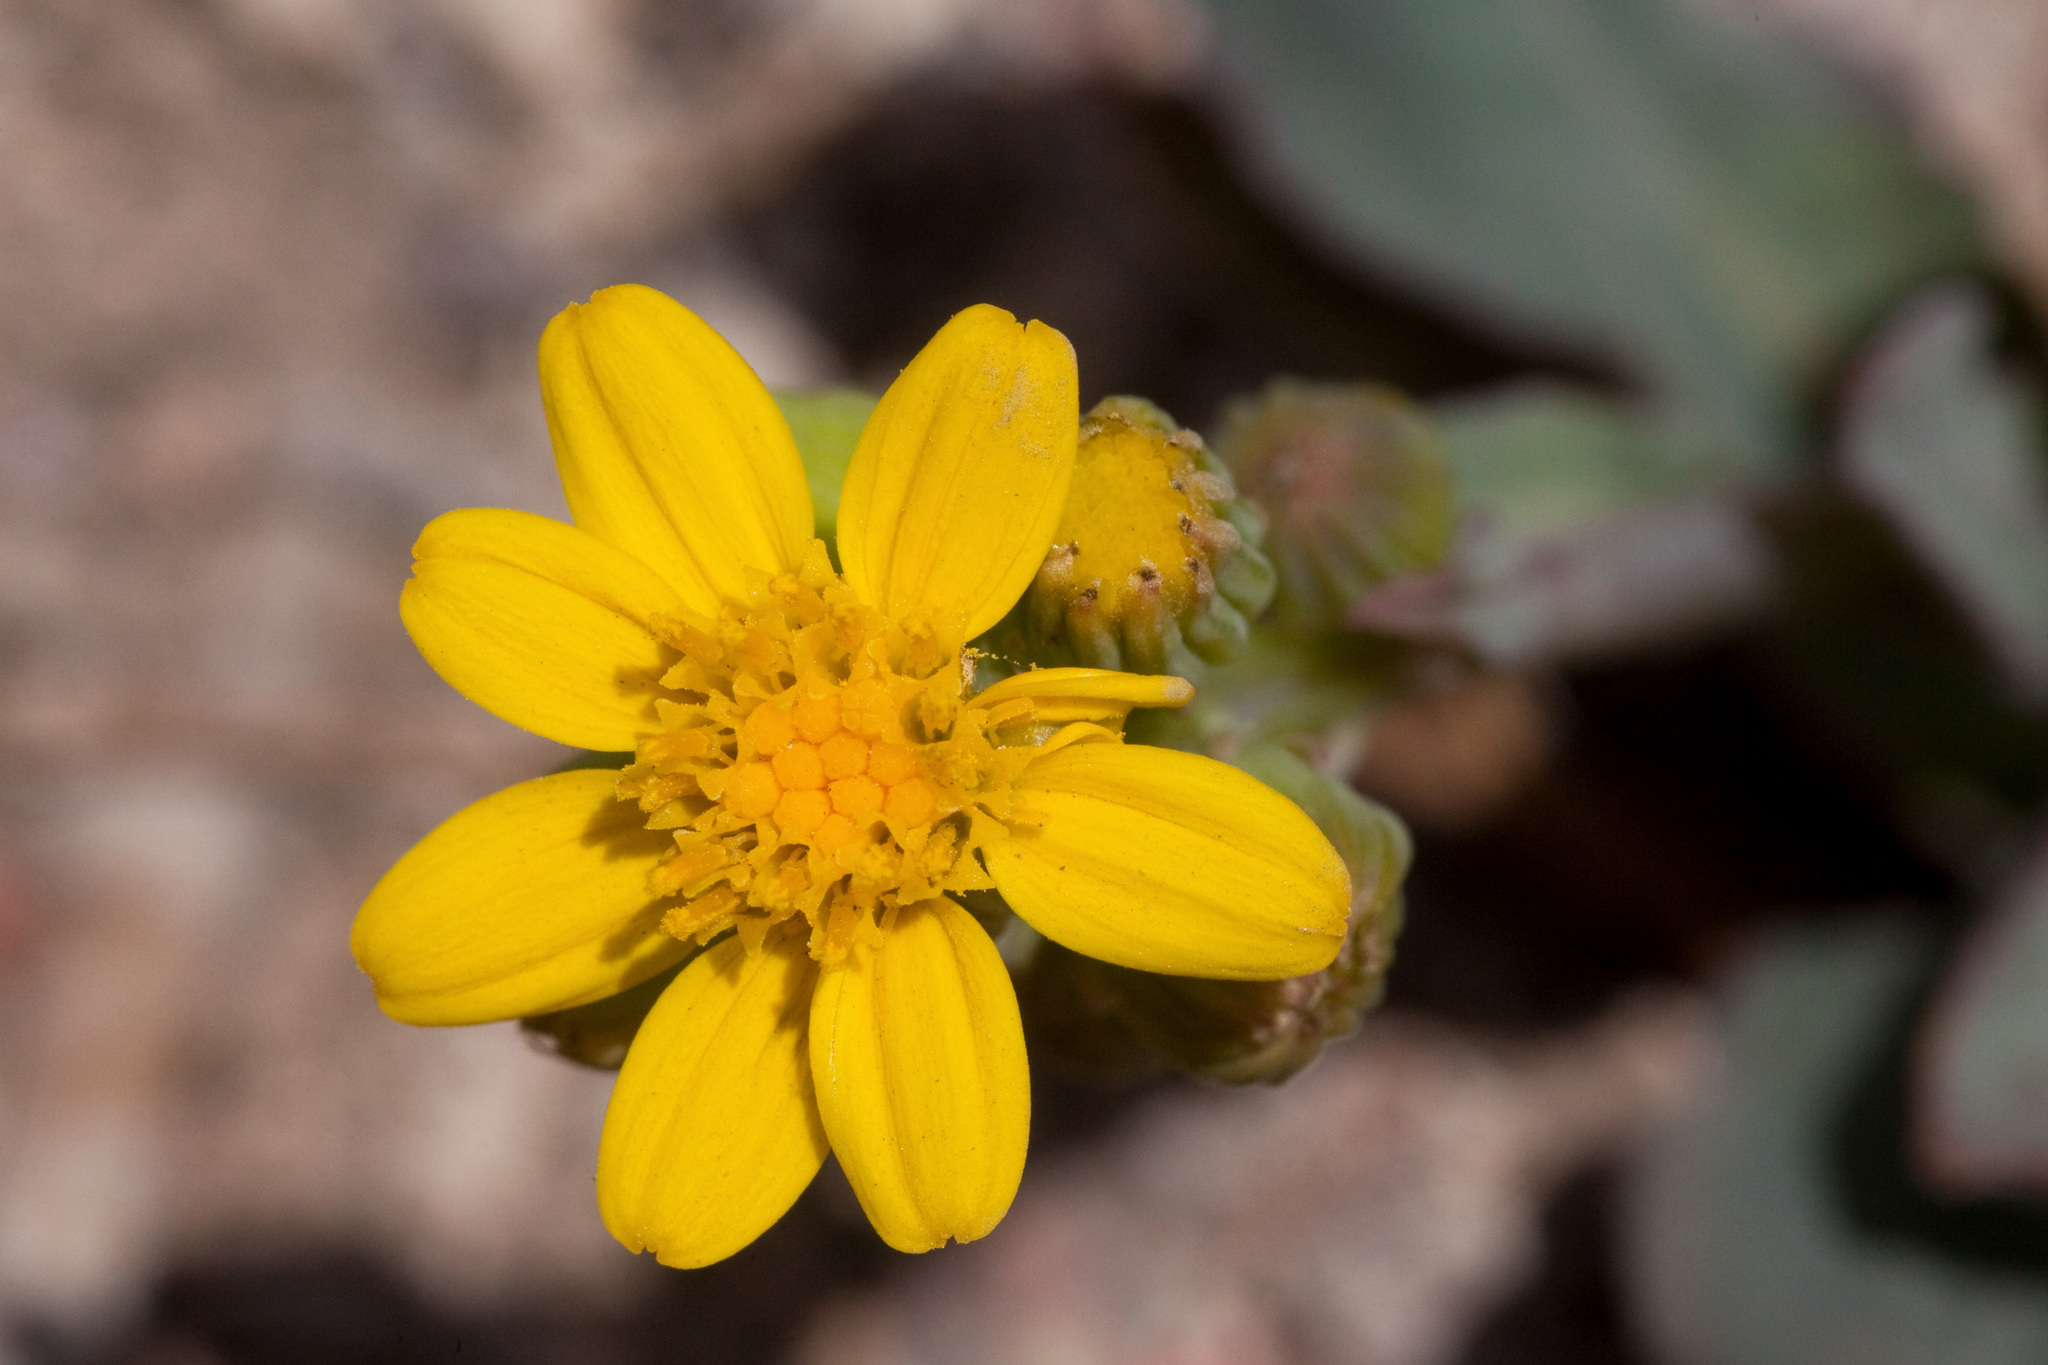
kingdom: Plantae
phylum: Tracheophyta
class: Magnoliopsida
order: Asterales
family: Asteraceae
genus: Senecio
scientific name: Senecio wootonii
